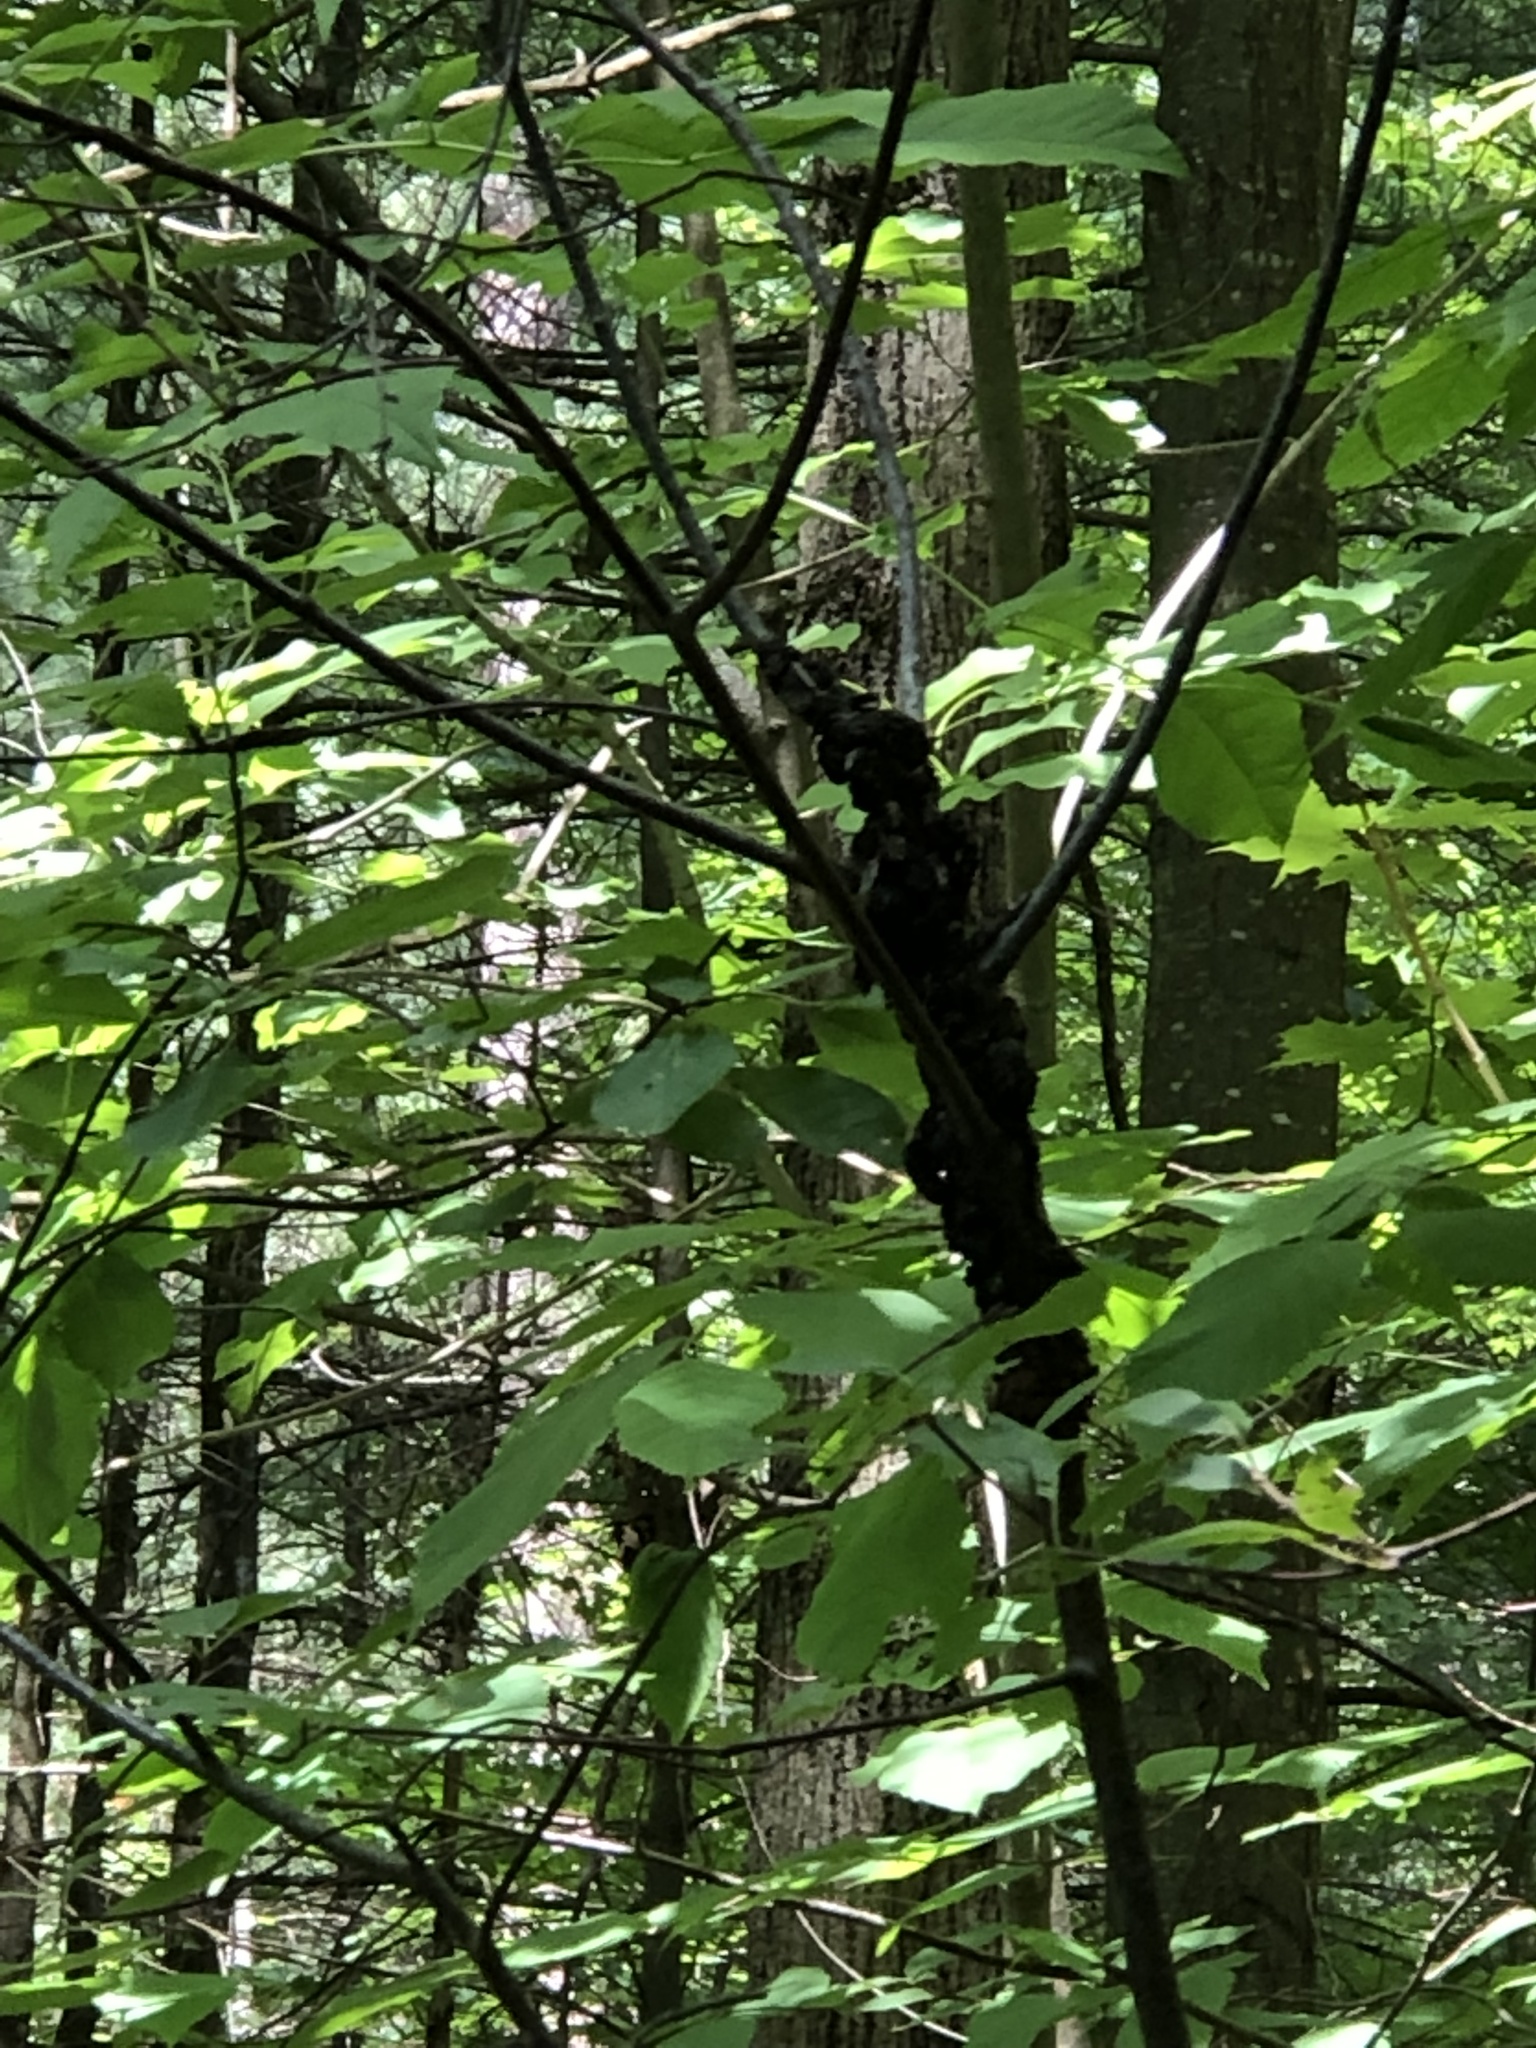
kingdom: Fungi
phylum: Ascomycota
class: Dothideomycetes
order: Venturiales
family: Venturiaceae
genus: Apiosporina
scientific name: Apiosporina morbosa
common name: Black knot
